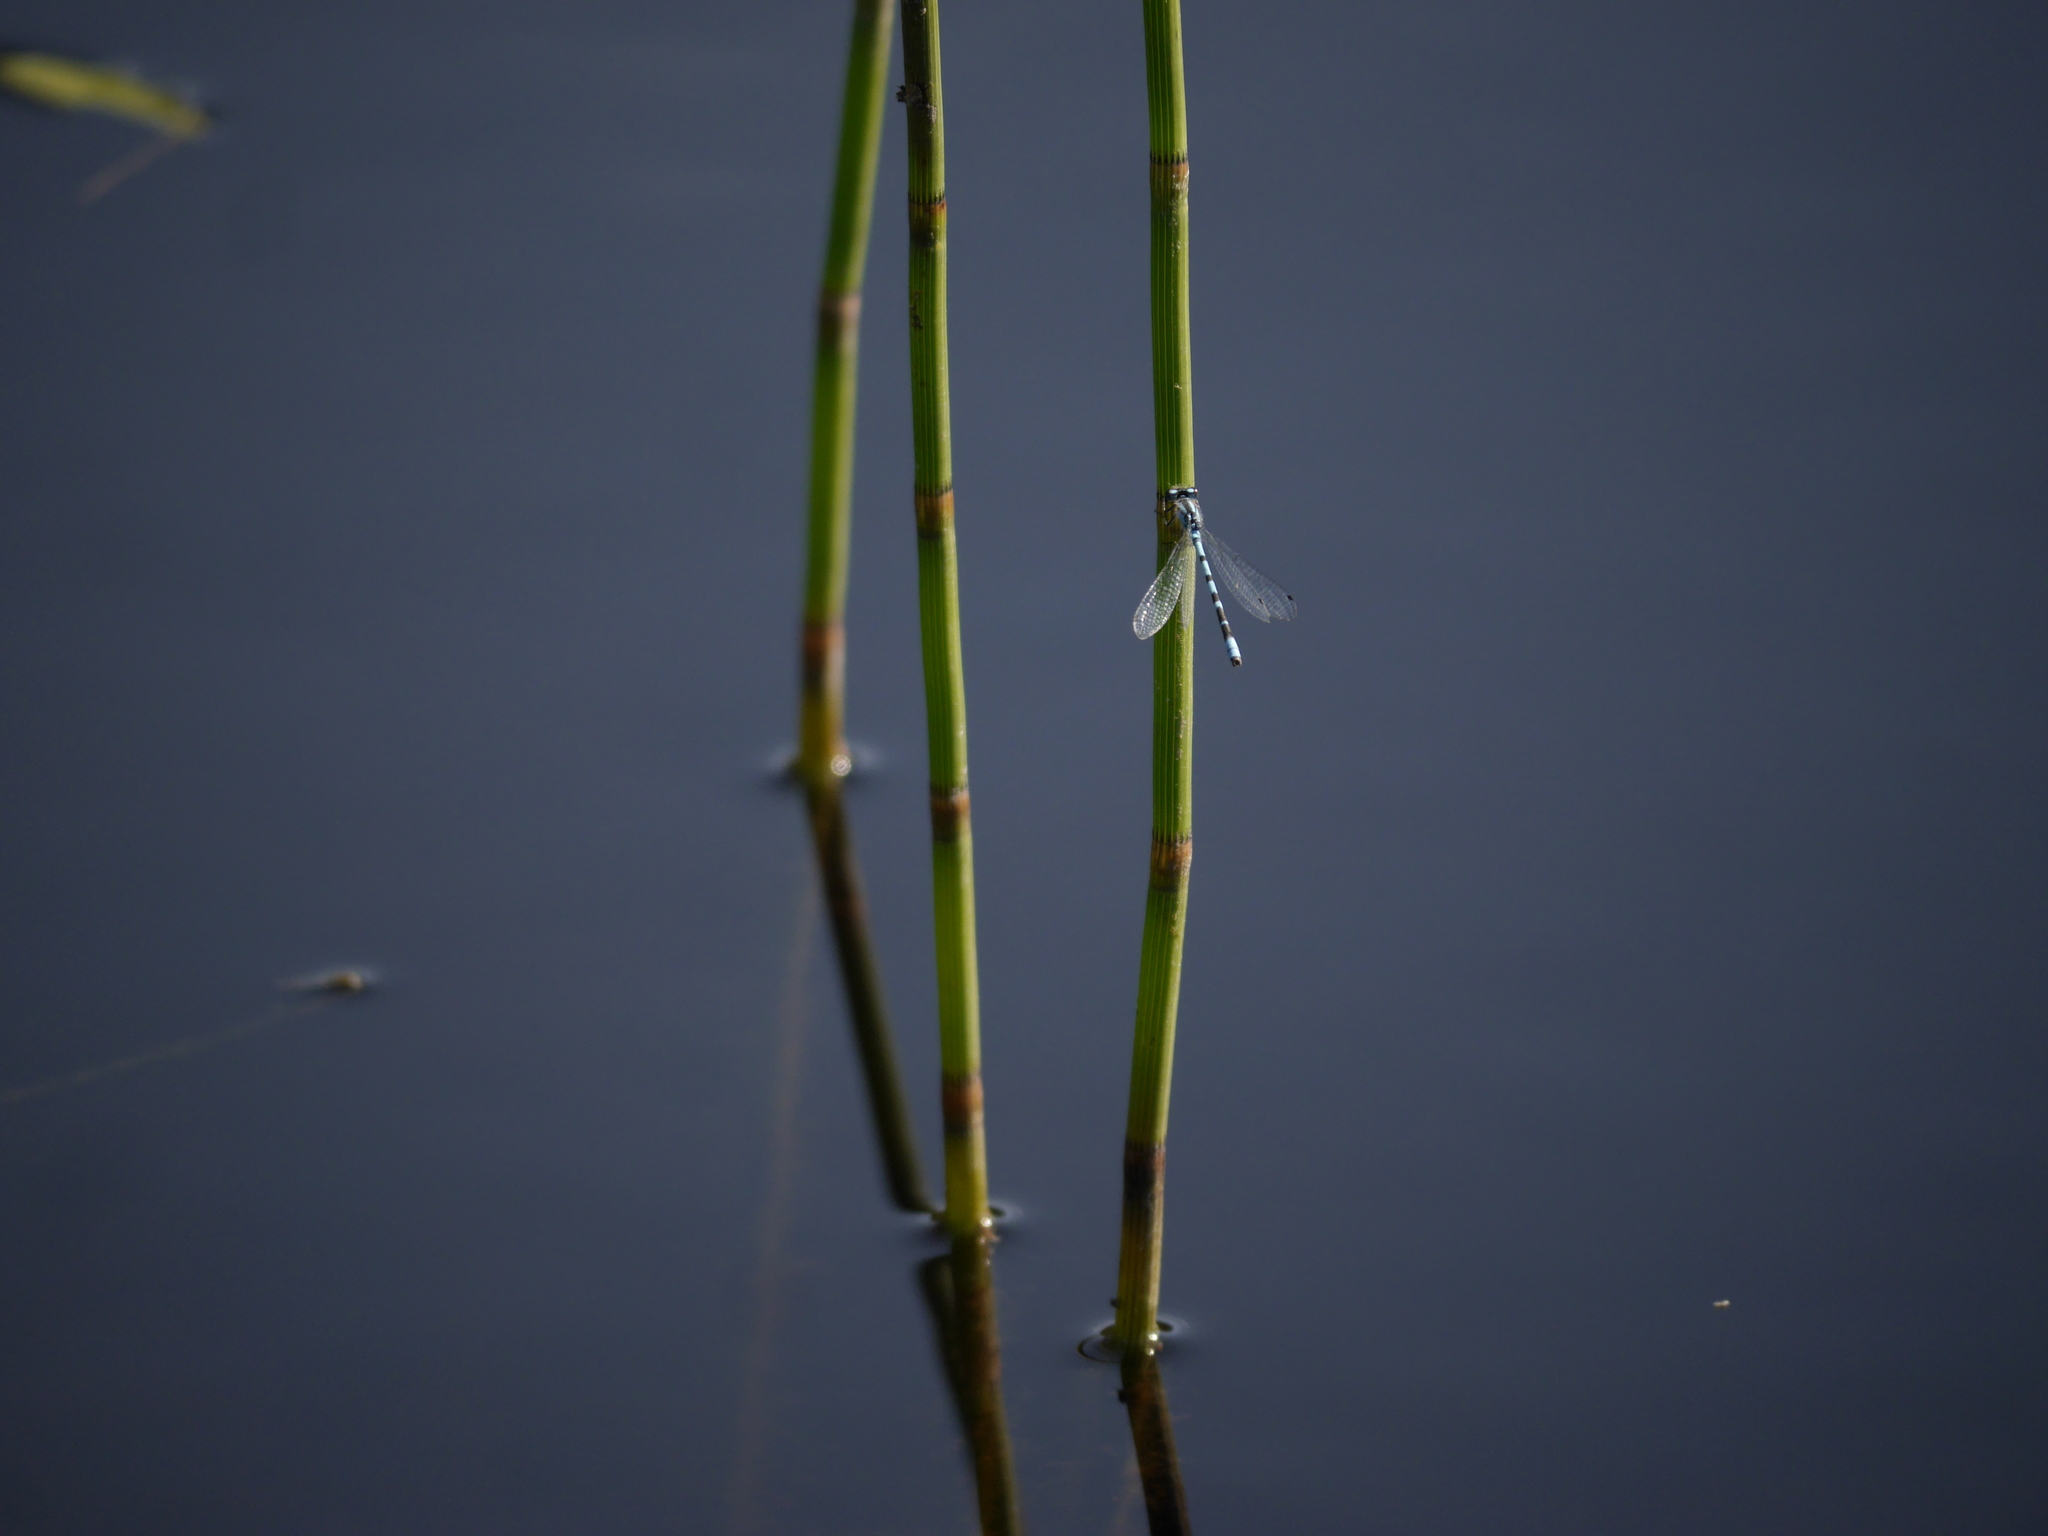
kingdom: Animalia
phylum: Arthropoda
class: Insecta
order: Odonata
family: Coenagrionidae
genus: Enallagma
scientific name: Enallagma cyathigerum
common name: Common blue damselfly
